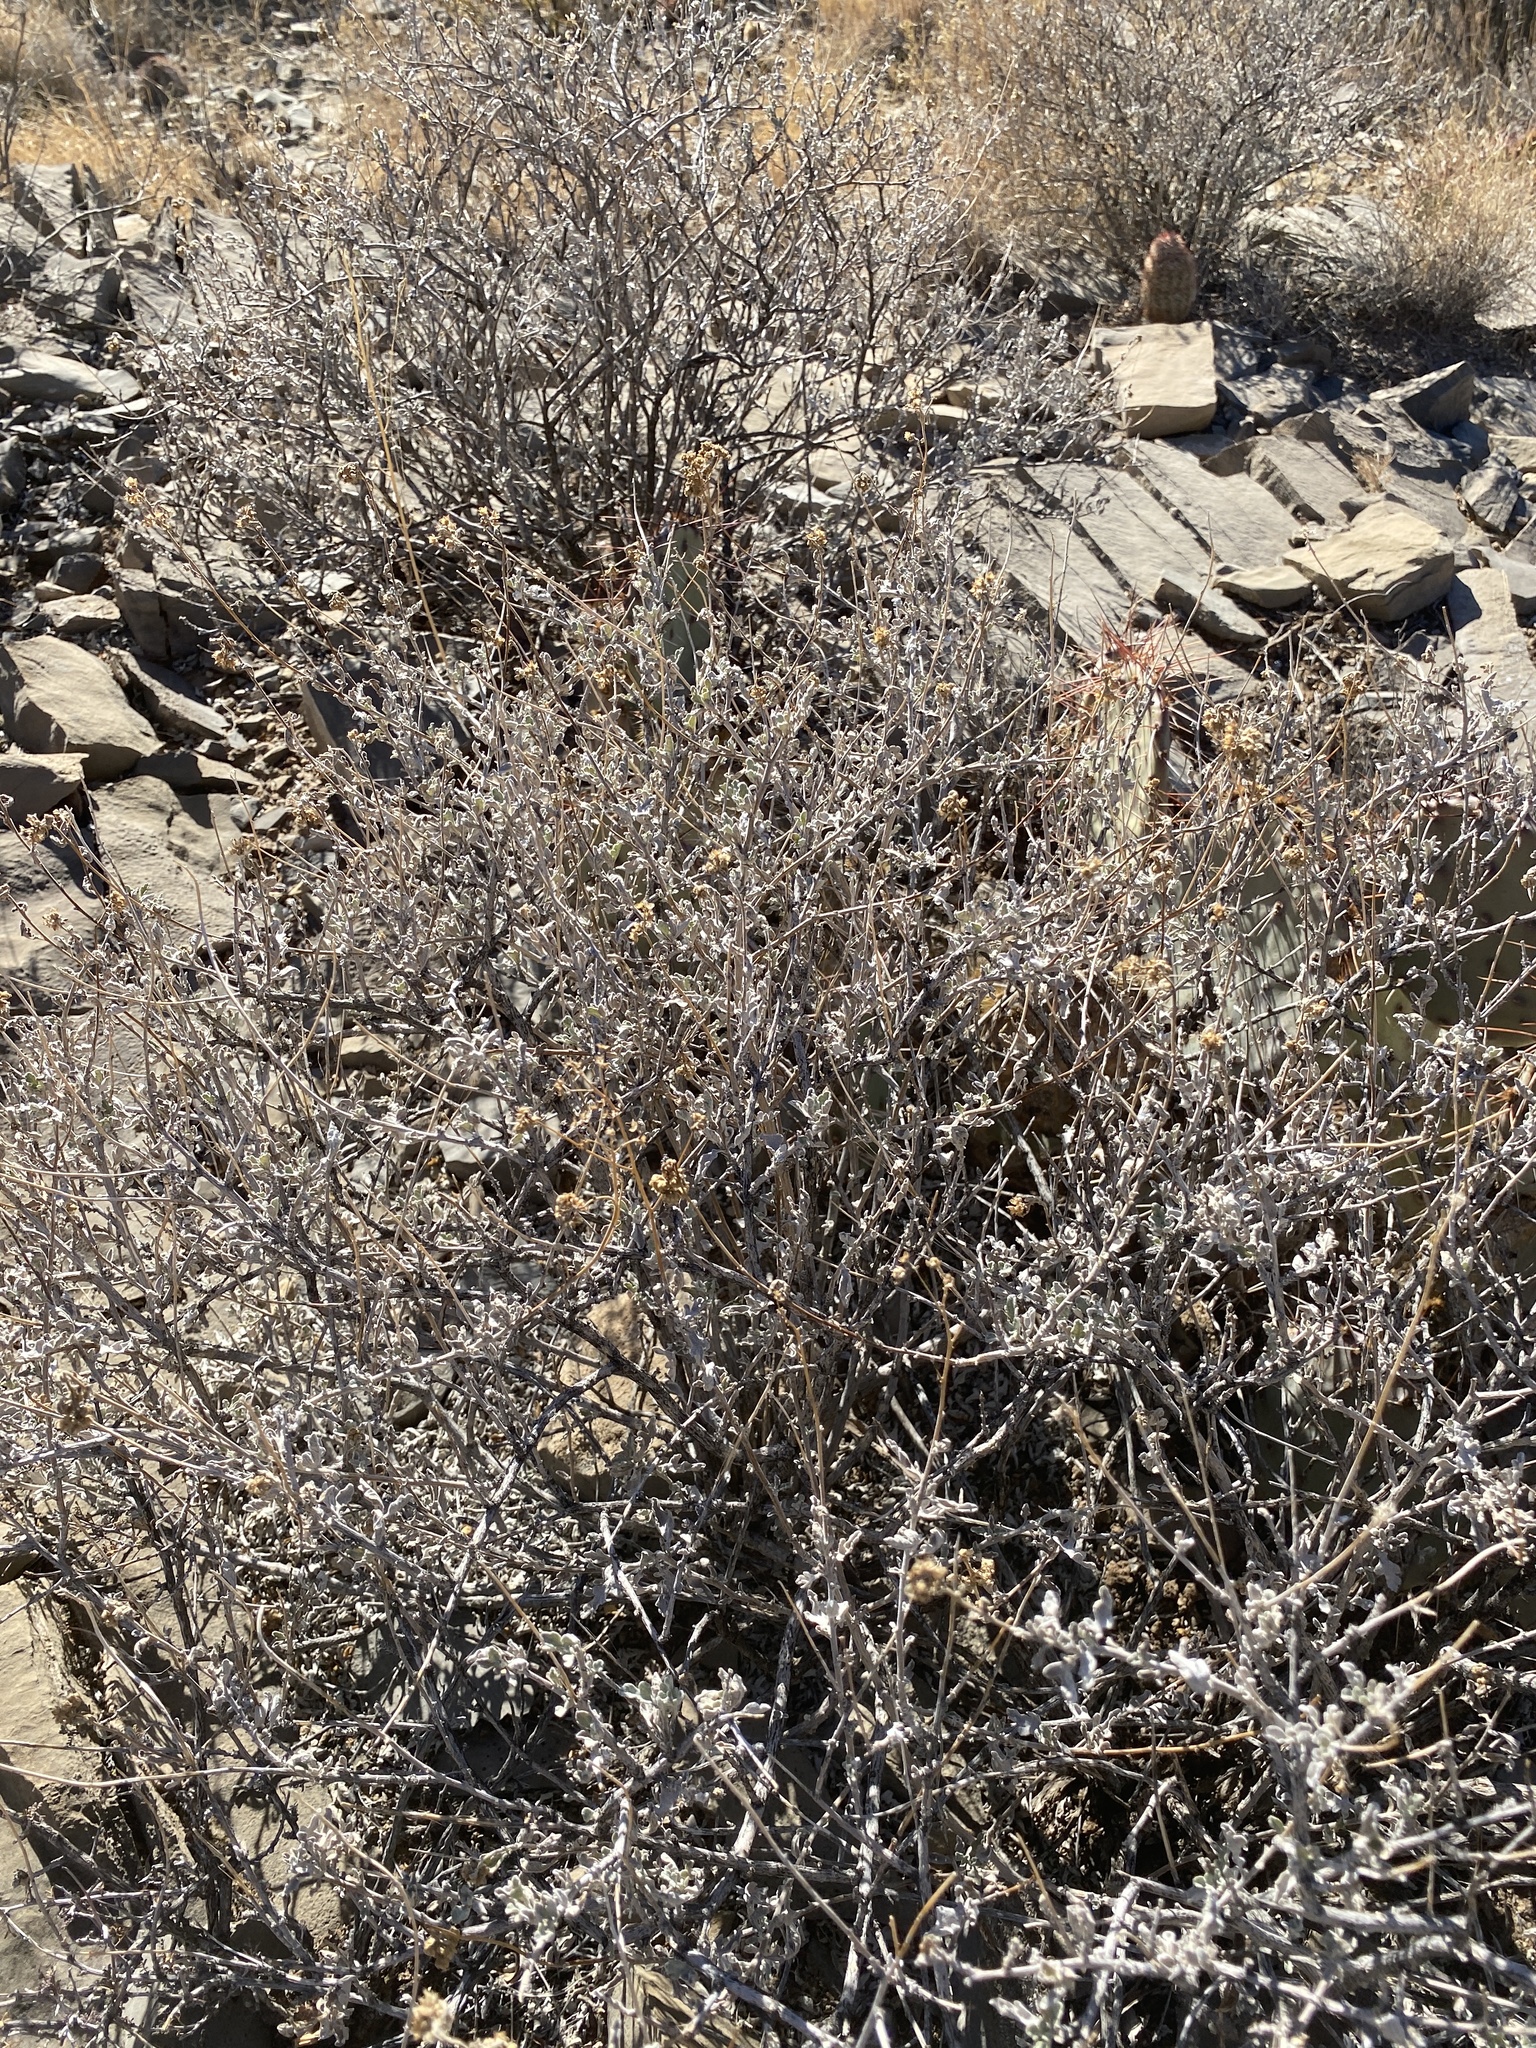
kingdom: Plantae
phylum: Tracheophyta
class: Magnoliopsida
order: Asterales
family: Asteraceae
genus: Parthenium
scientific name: Parthenium incanum
